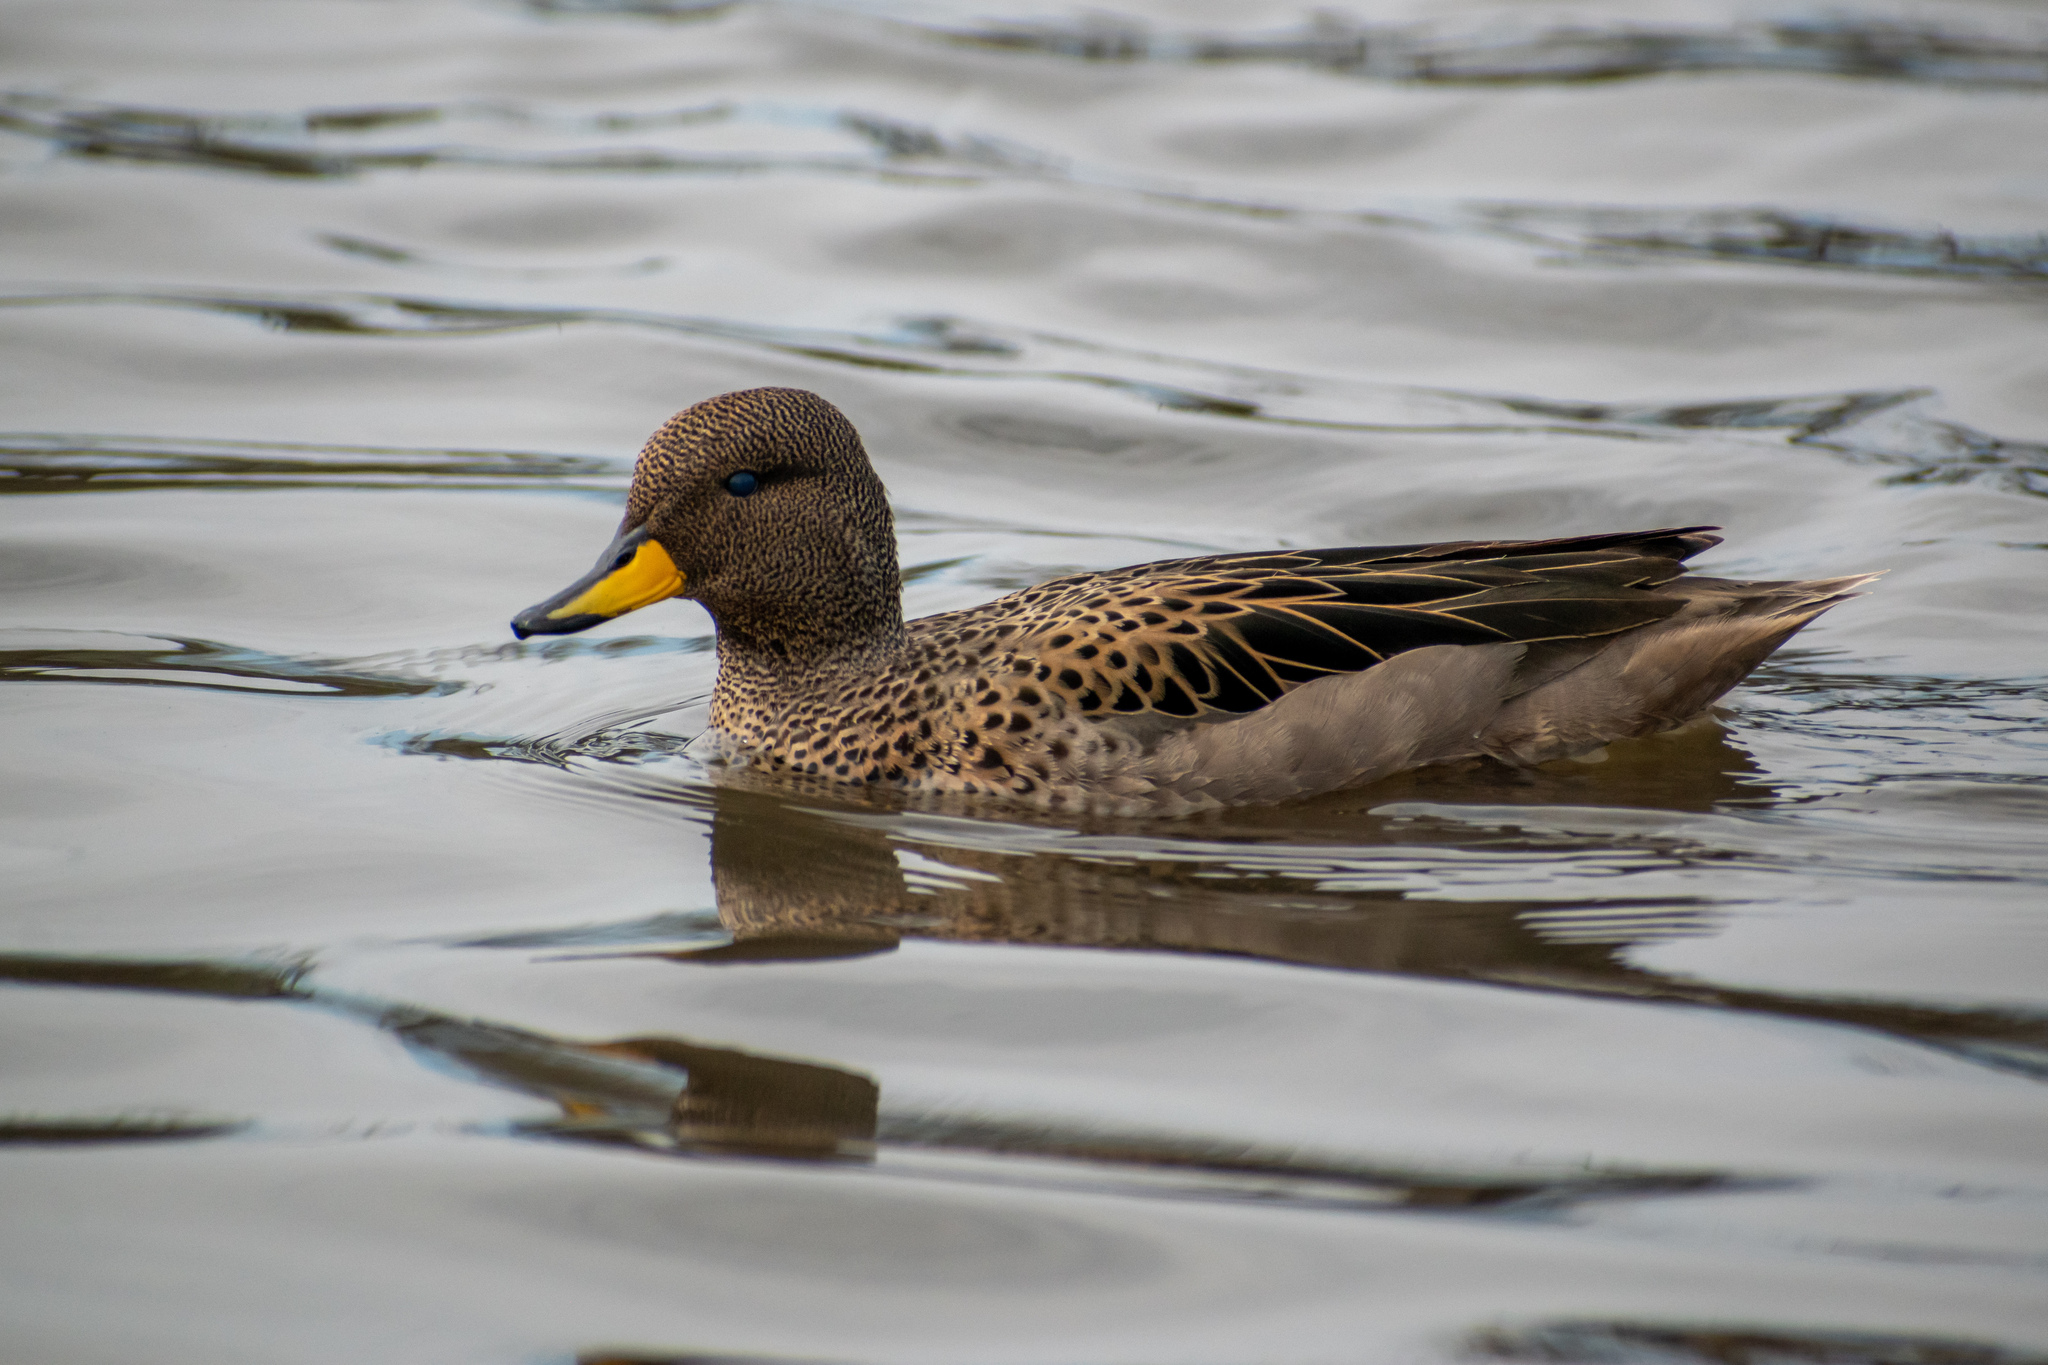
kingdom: Animalia
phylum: Chordata
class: Aves
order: Anseriformes
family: Anatidae
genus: Anas
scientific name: Anas flavirostris
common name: Yellow-billed teal
